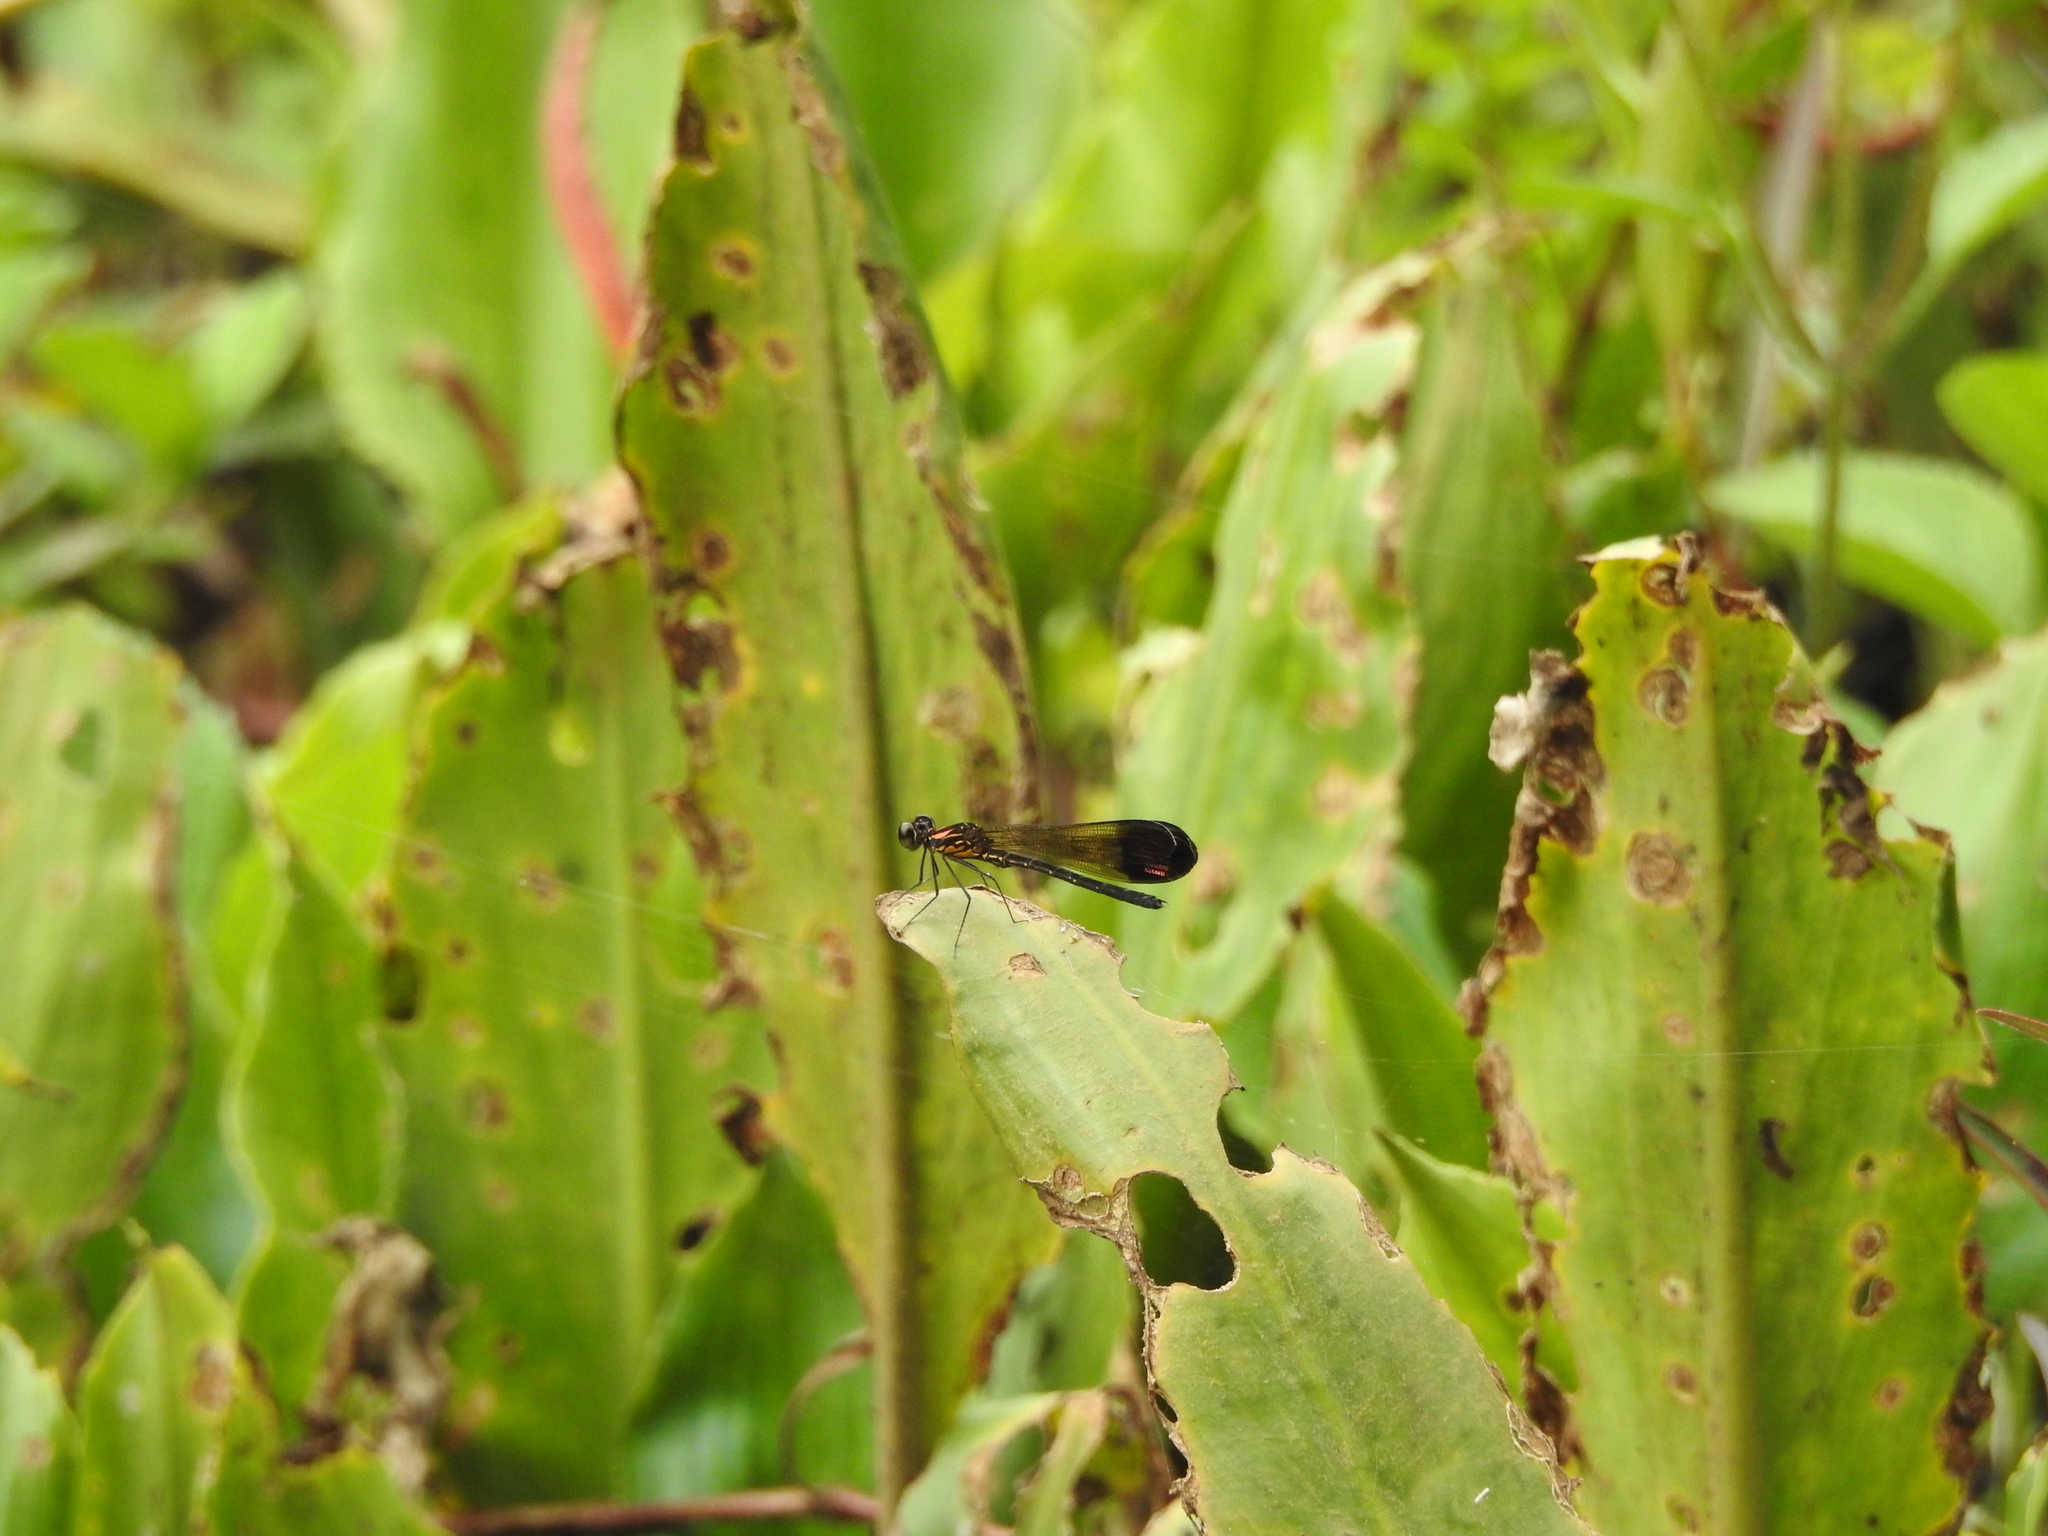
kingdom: Animalia
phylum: Arthropoda
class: Insecta
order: Odonata
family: Chlorocyphidae
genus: Heliocypha
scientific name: Heliocypha bisignata
